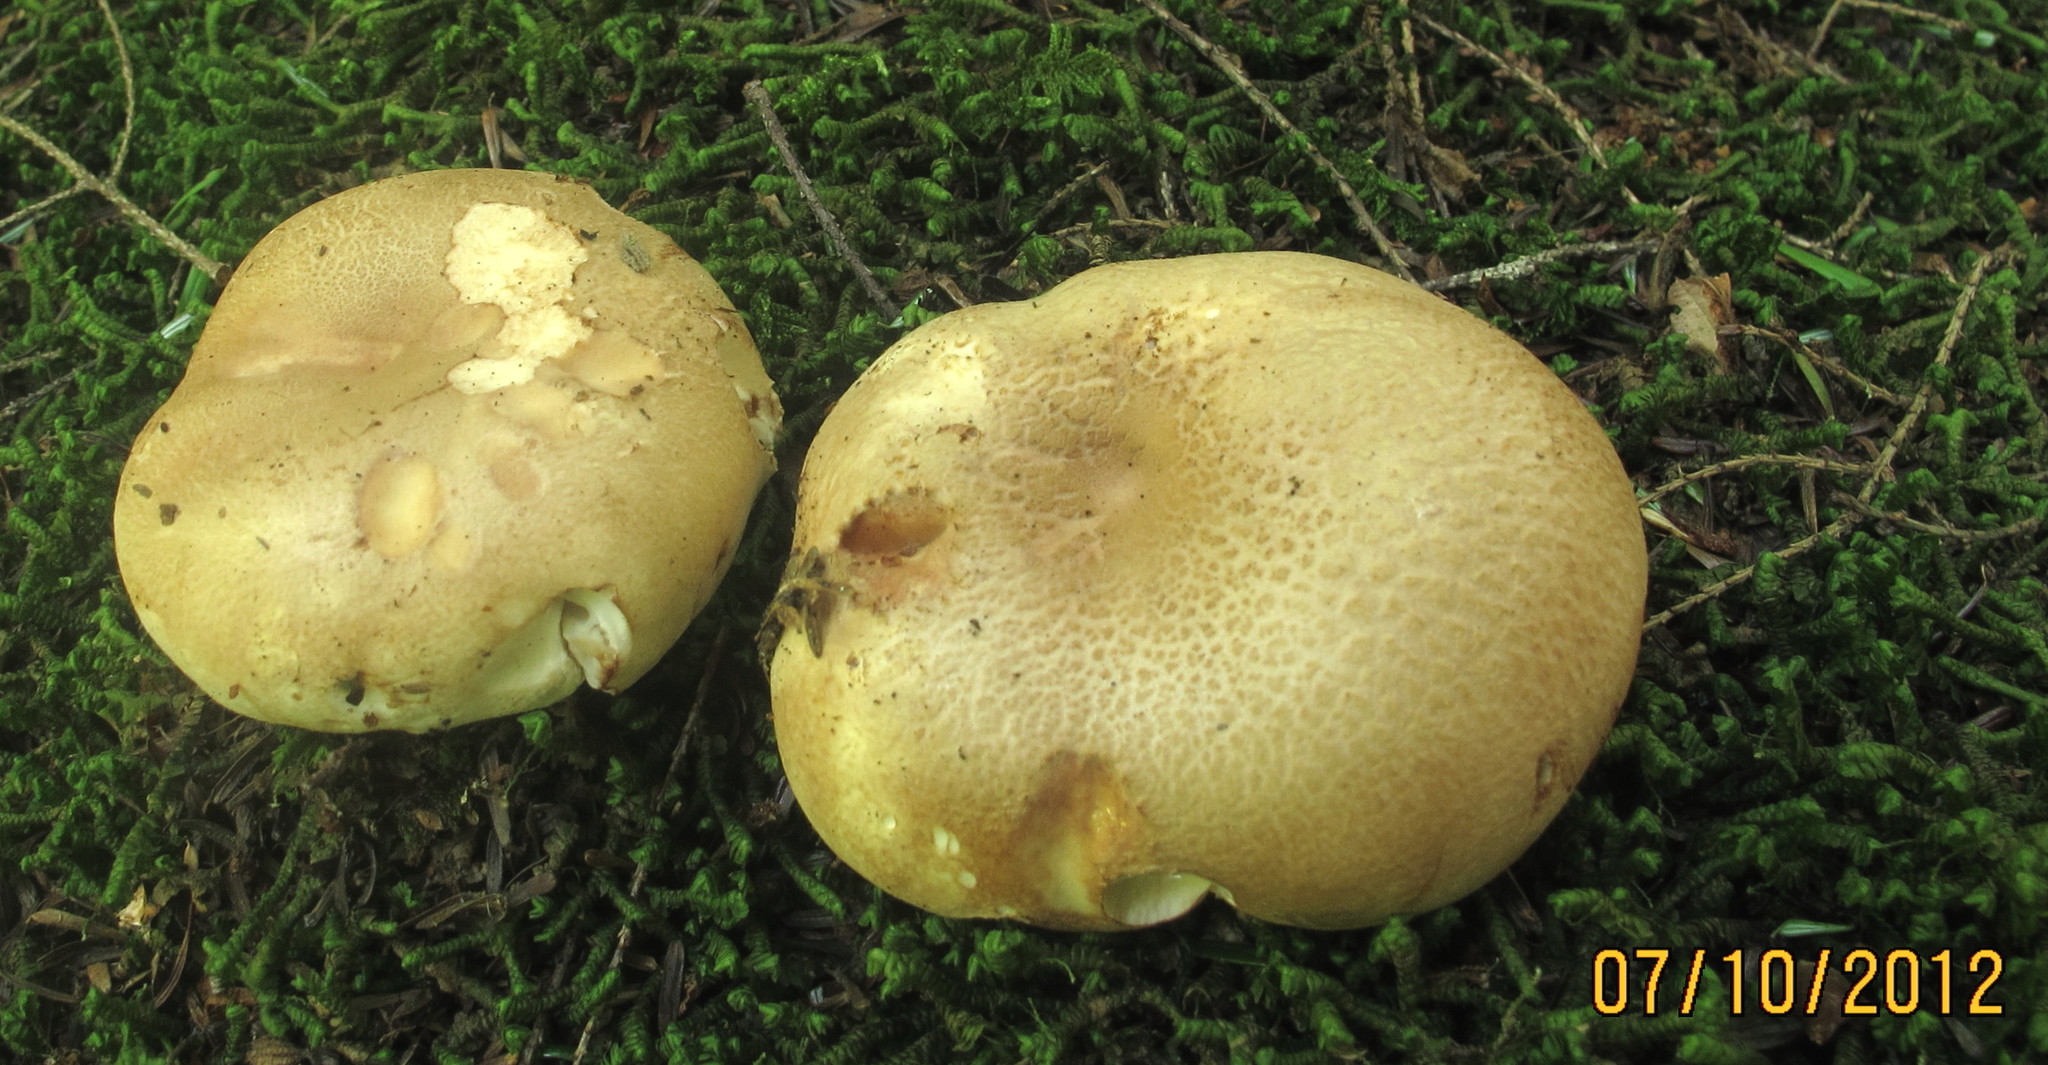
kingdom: Fungi
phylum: Basidiomycota
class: Agaricomycetes
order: Russulales
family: Russulaceae
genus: Russula
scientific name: Russula compacta
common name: Fishbiscuit russula
